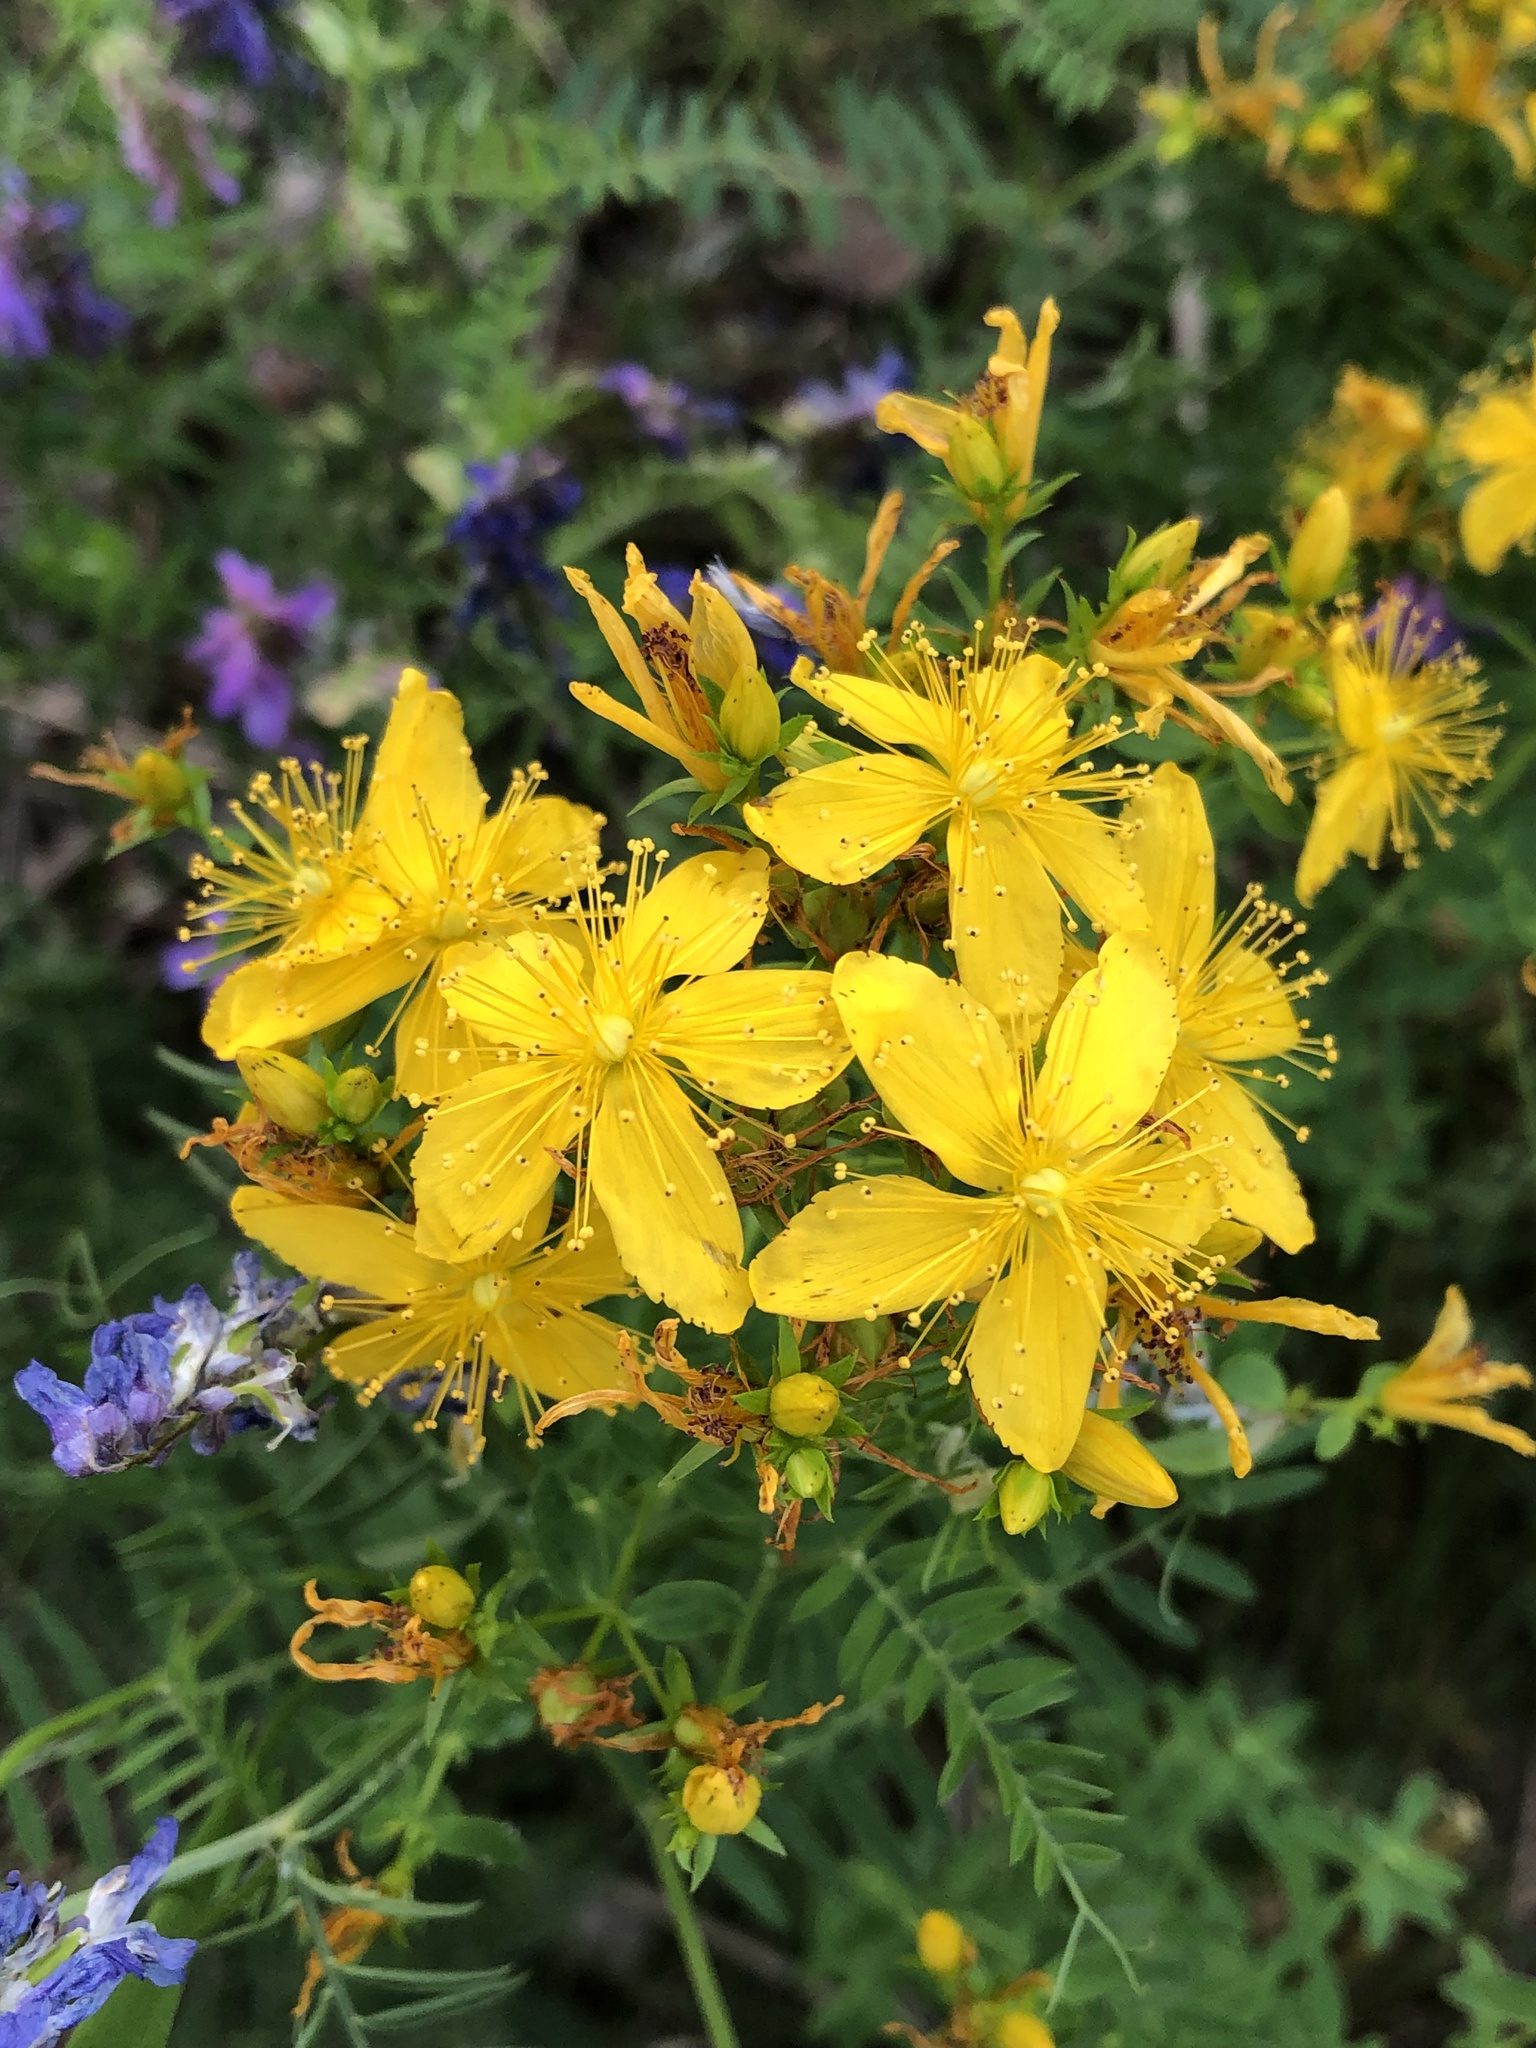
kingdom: Plantae
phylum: Tracheophyta
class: Magnoliopsida
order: Malpighiales
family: Hypericaceae
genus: Hypericum
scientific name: Hypericum perforatum
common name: Common st. johnswort
